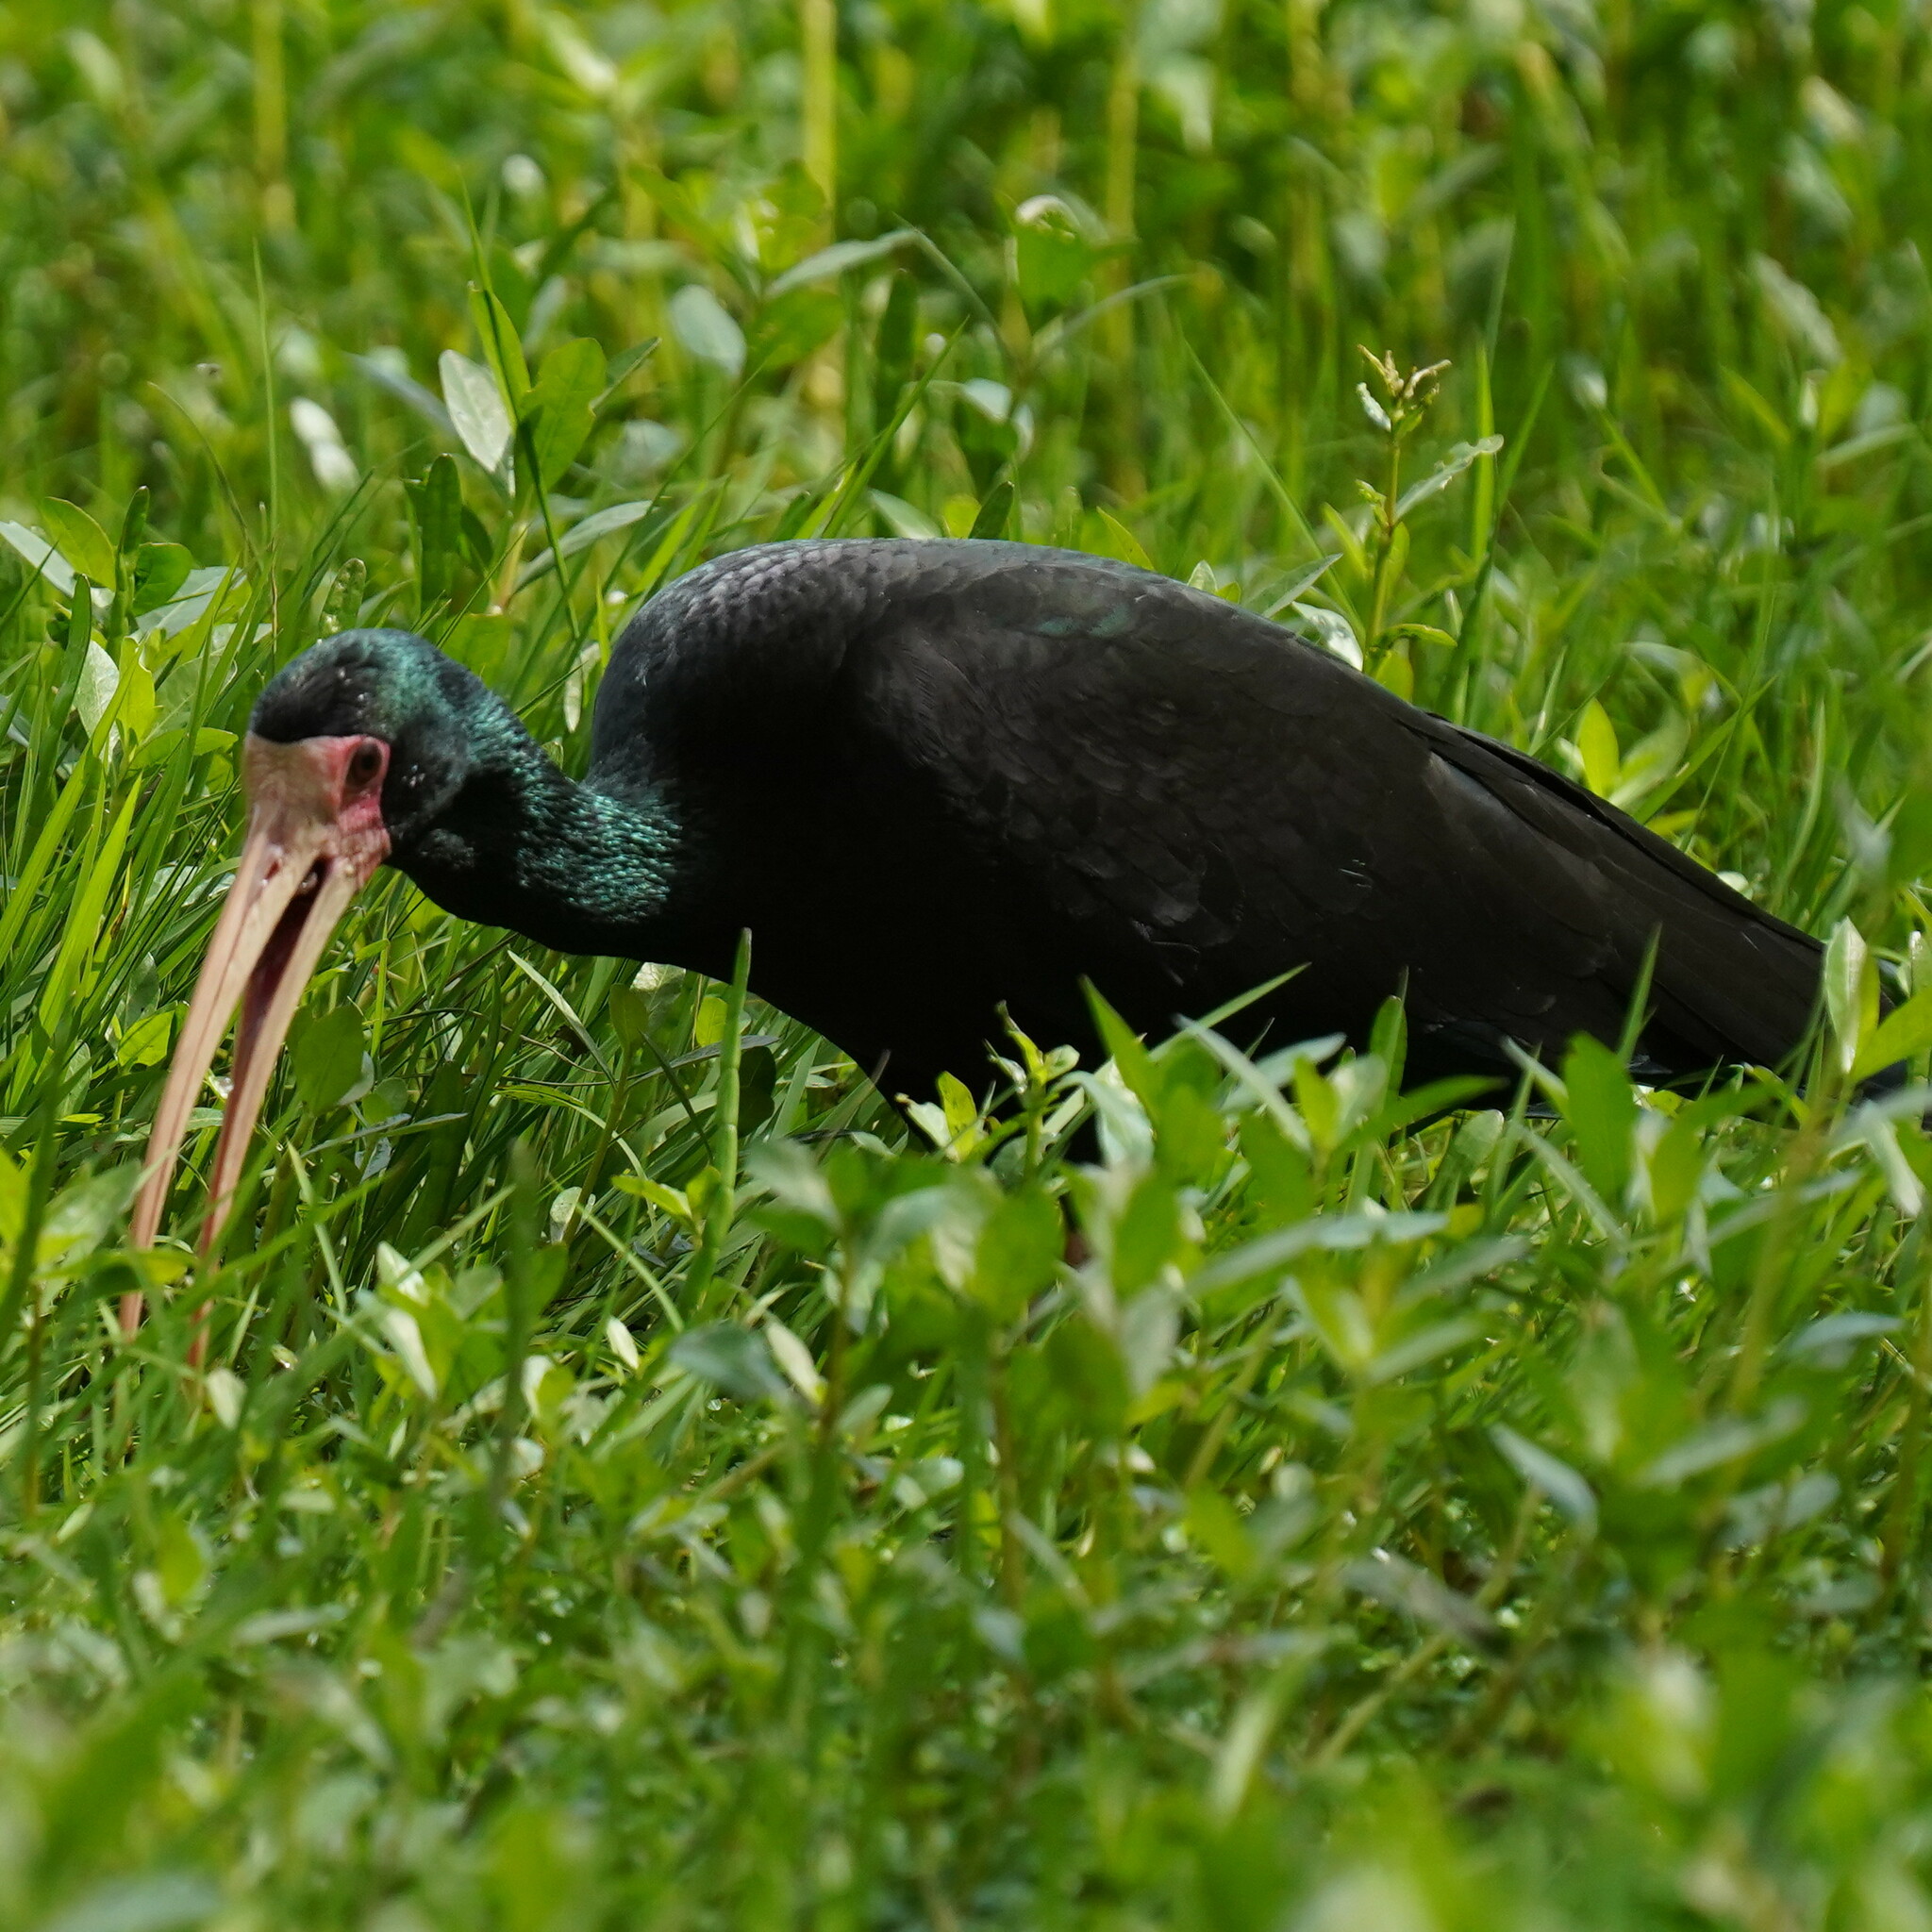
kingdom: Animalia
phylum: Chordata
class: Aves
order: Pelecaniformes
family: Threskiornithidae
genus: Phimosus
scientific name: Phimosus infuscatus
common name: Bare-faced ibis
